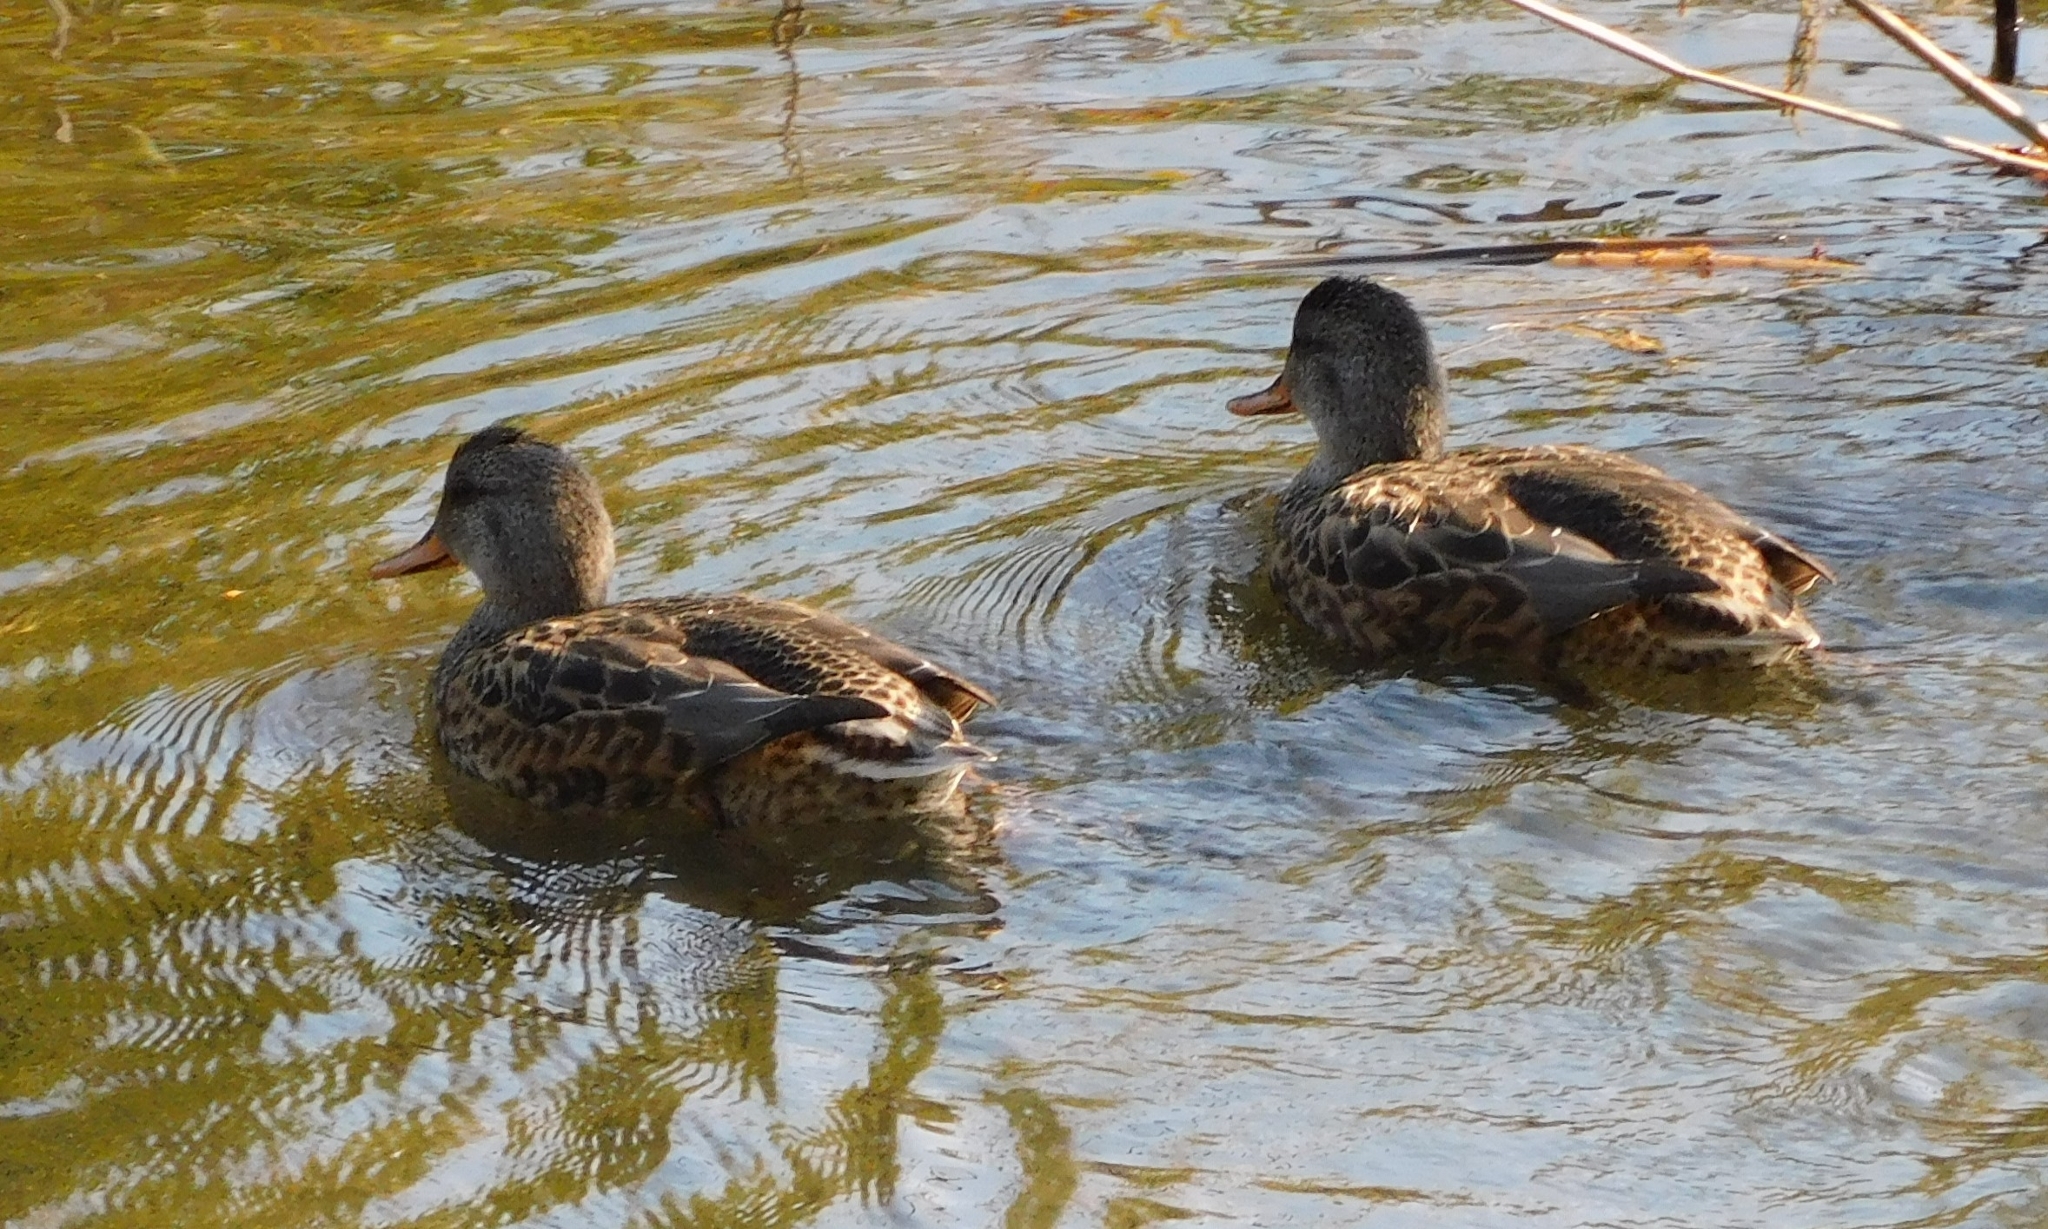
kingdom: Animalia
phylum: Chordata
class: Aves
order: Anseriformes
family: Anatidae
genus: Mareca
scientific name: Mareca strepera
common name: Gadwall
